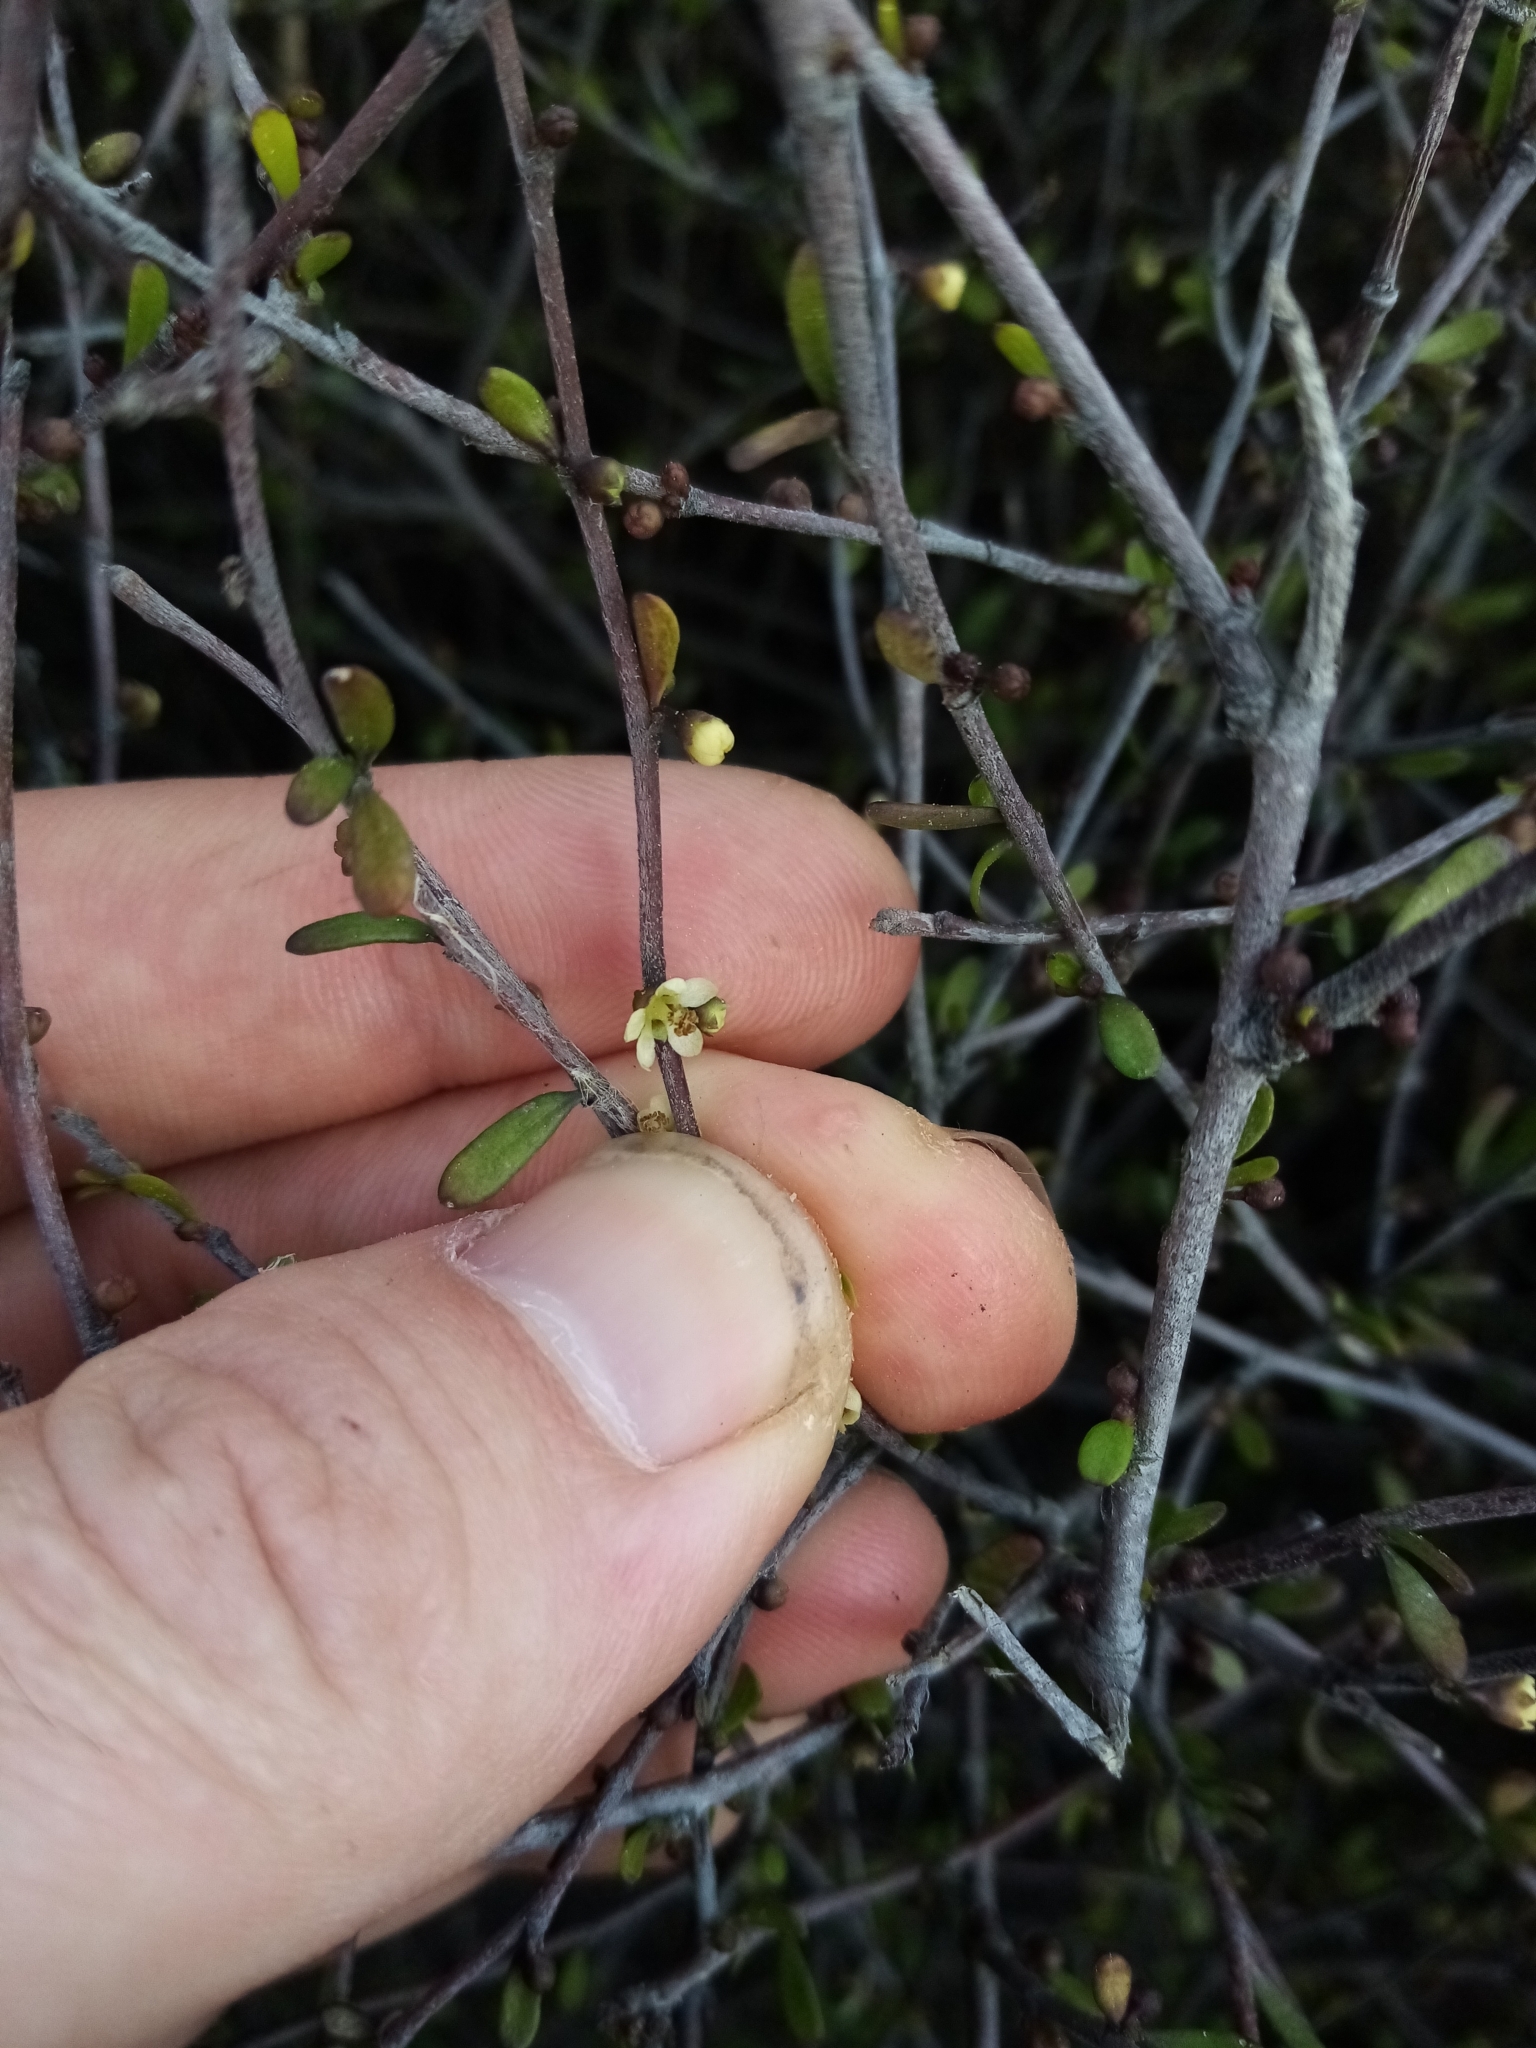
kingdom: Plantae
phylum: Tracheophyta
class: Magnoliopsida
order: Malvales
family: Malvaceae
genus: Plagianthus
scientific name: Plagianthus divaricatus
